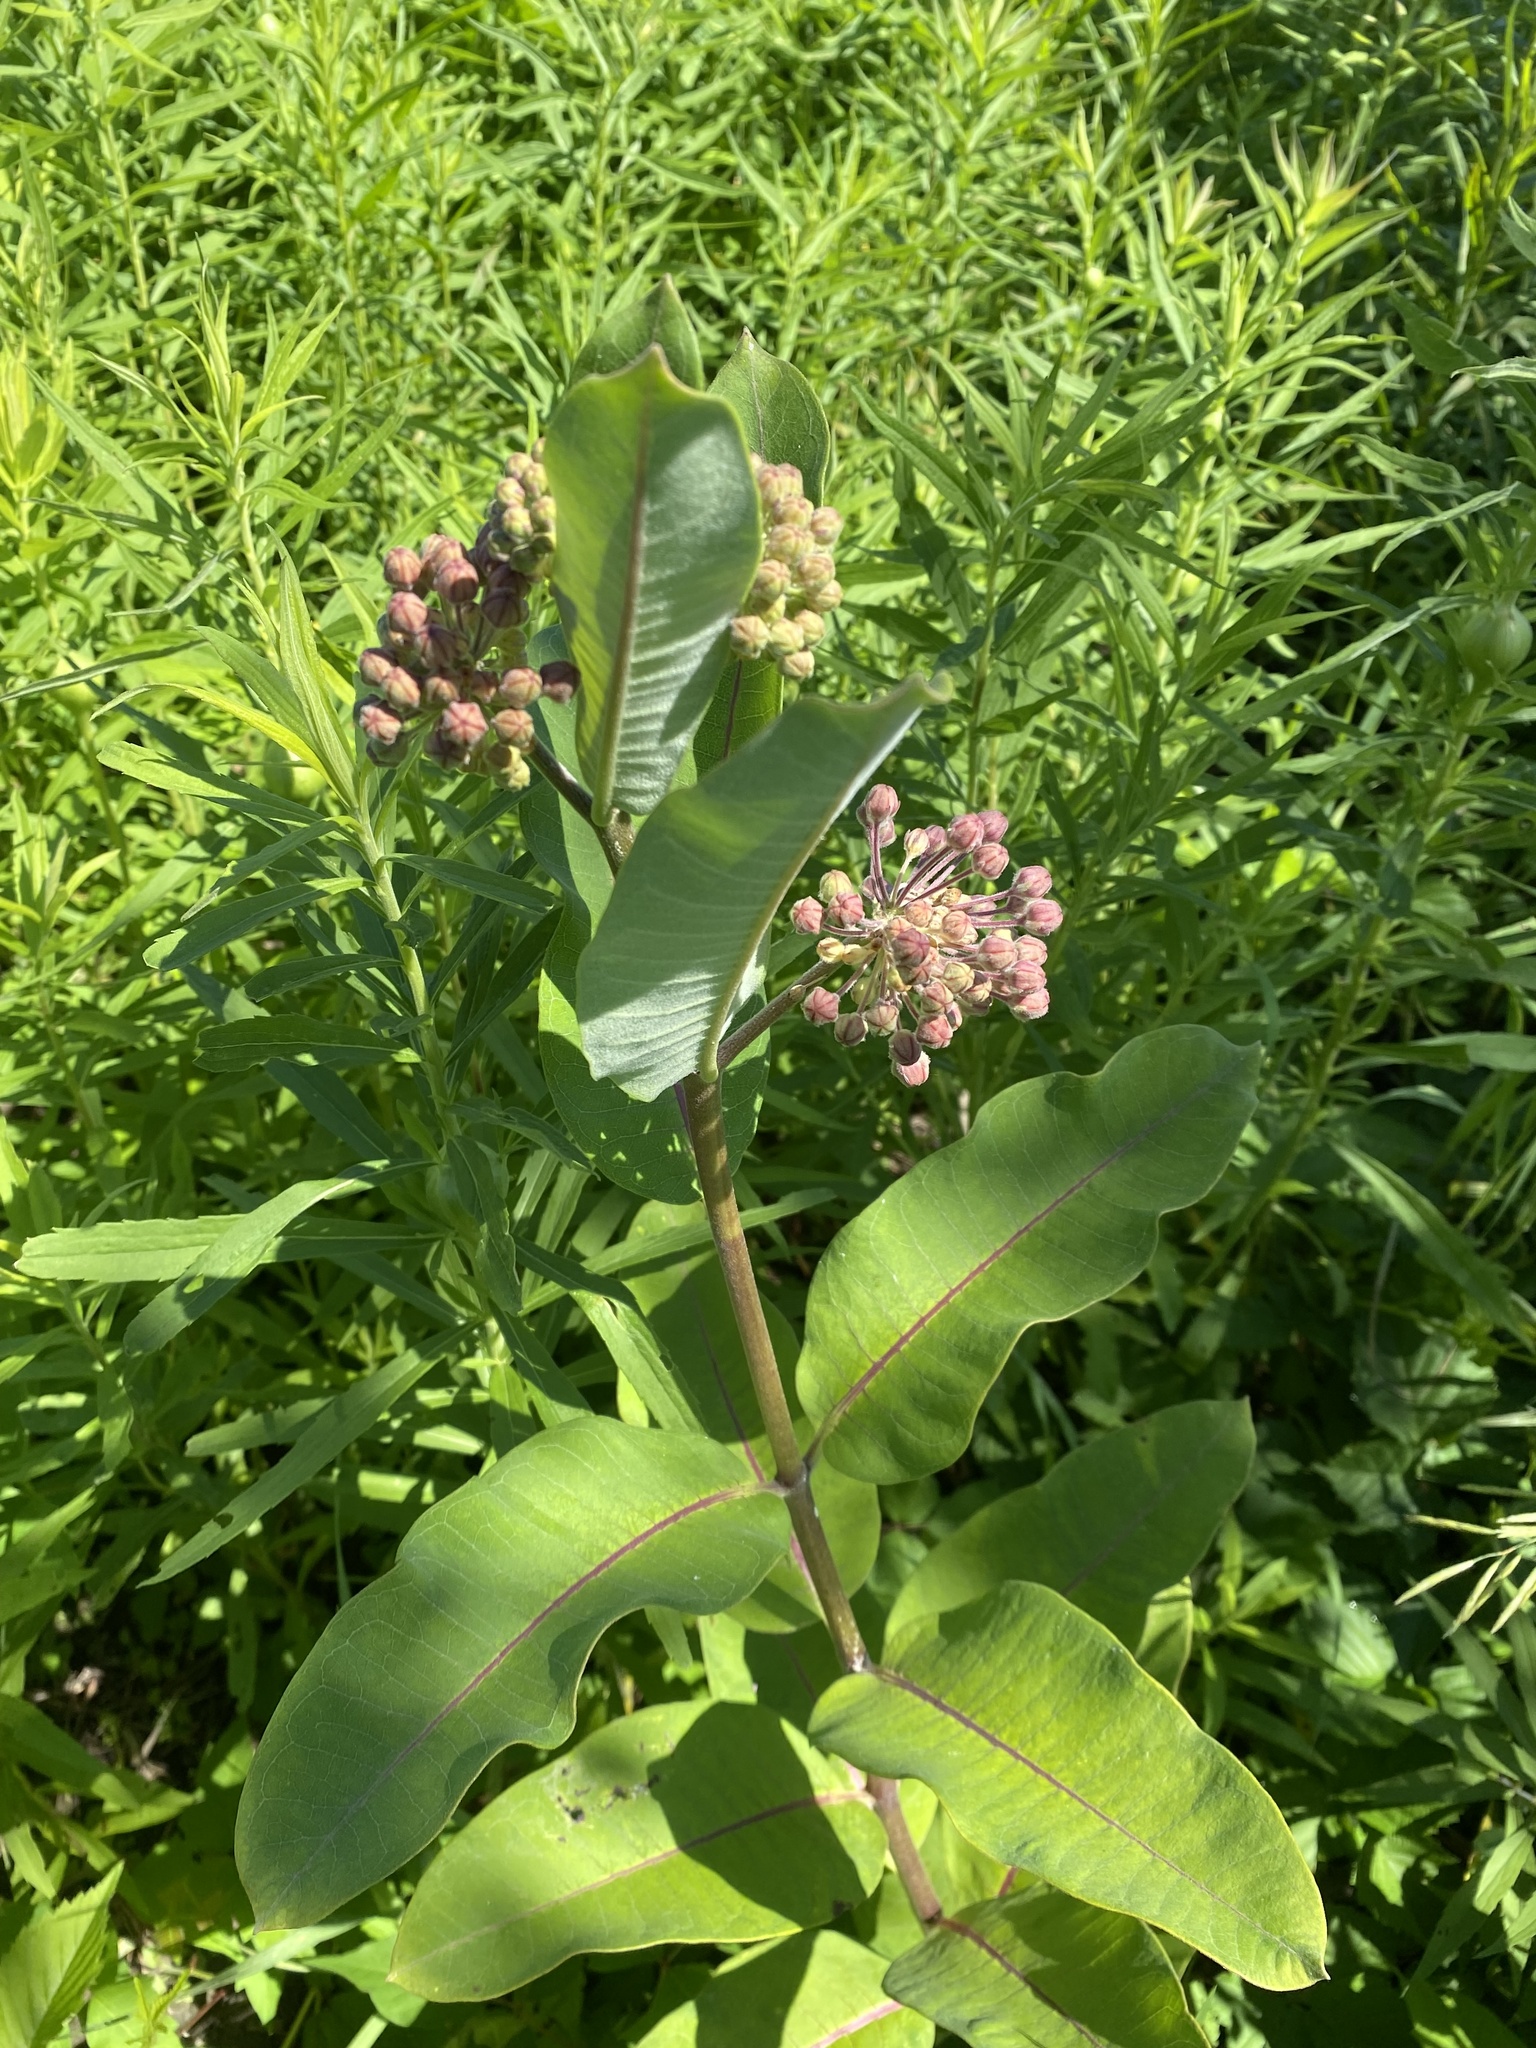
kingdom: Plantae
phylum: Tracheophyta
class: Magnoliopsida
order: Gentianales
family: Apocynaceae
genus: Asclepias
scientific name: Asclepias syriaca
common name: Common milkweed
